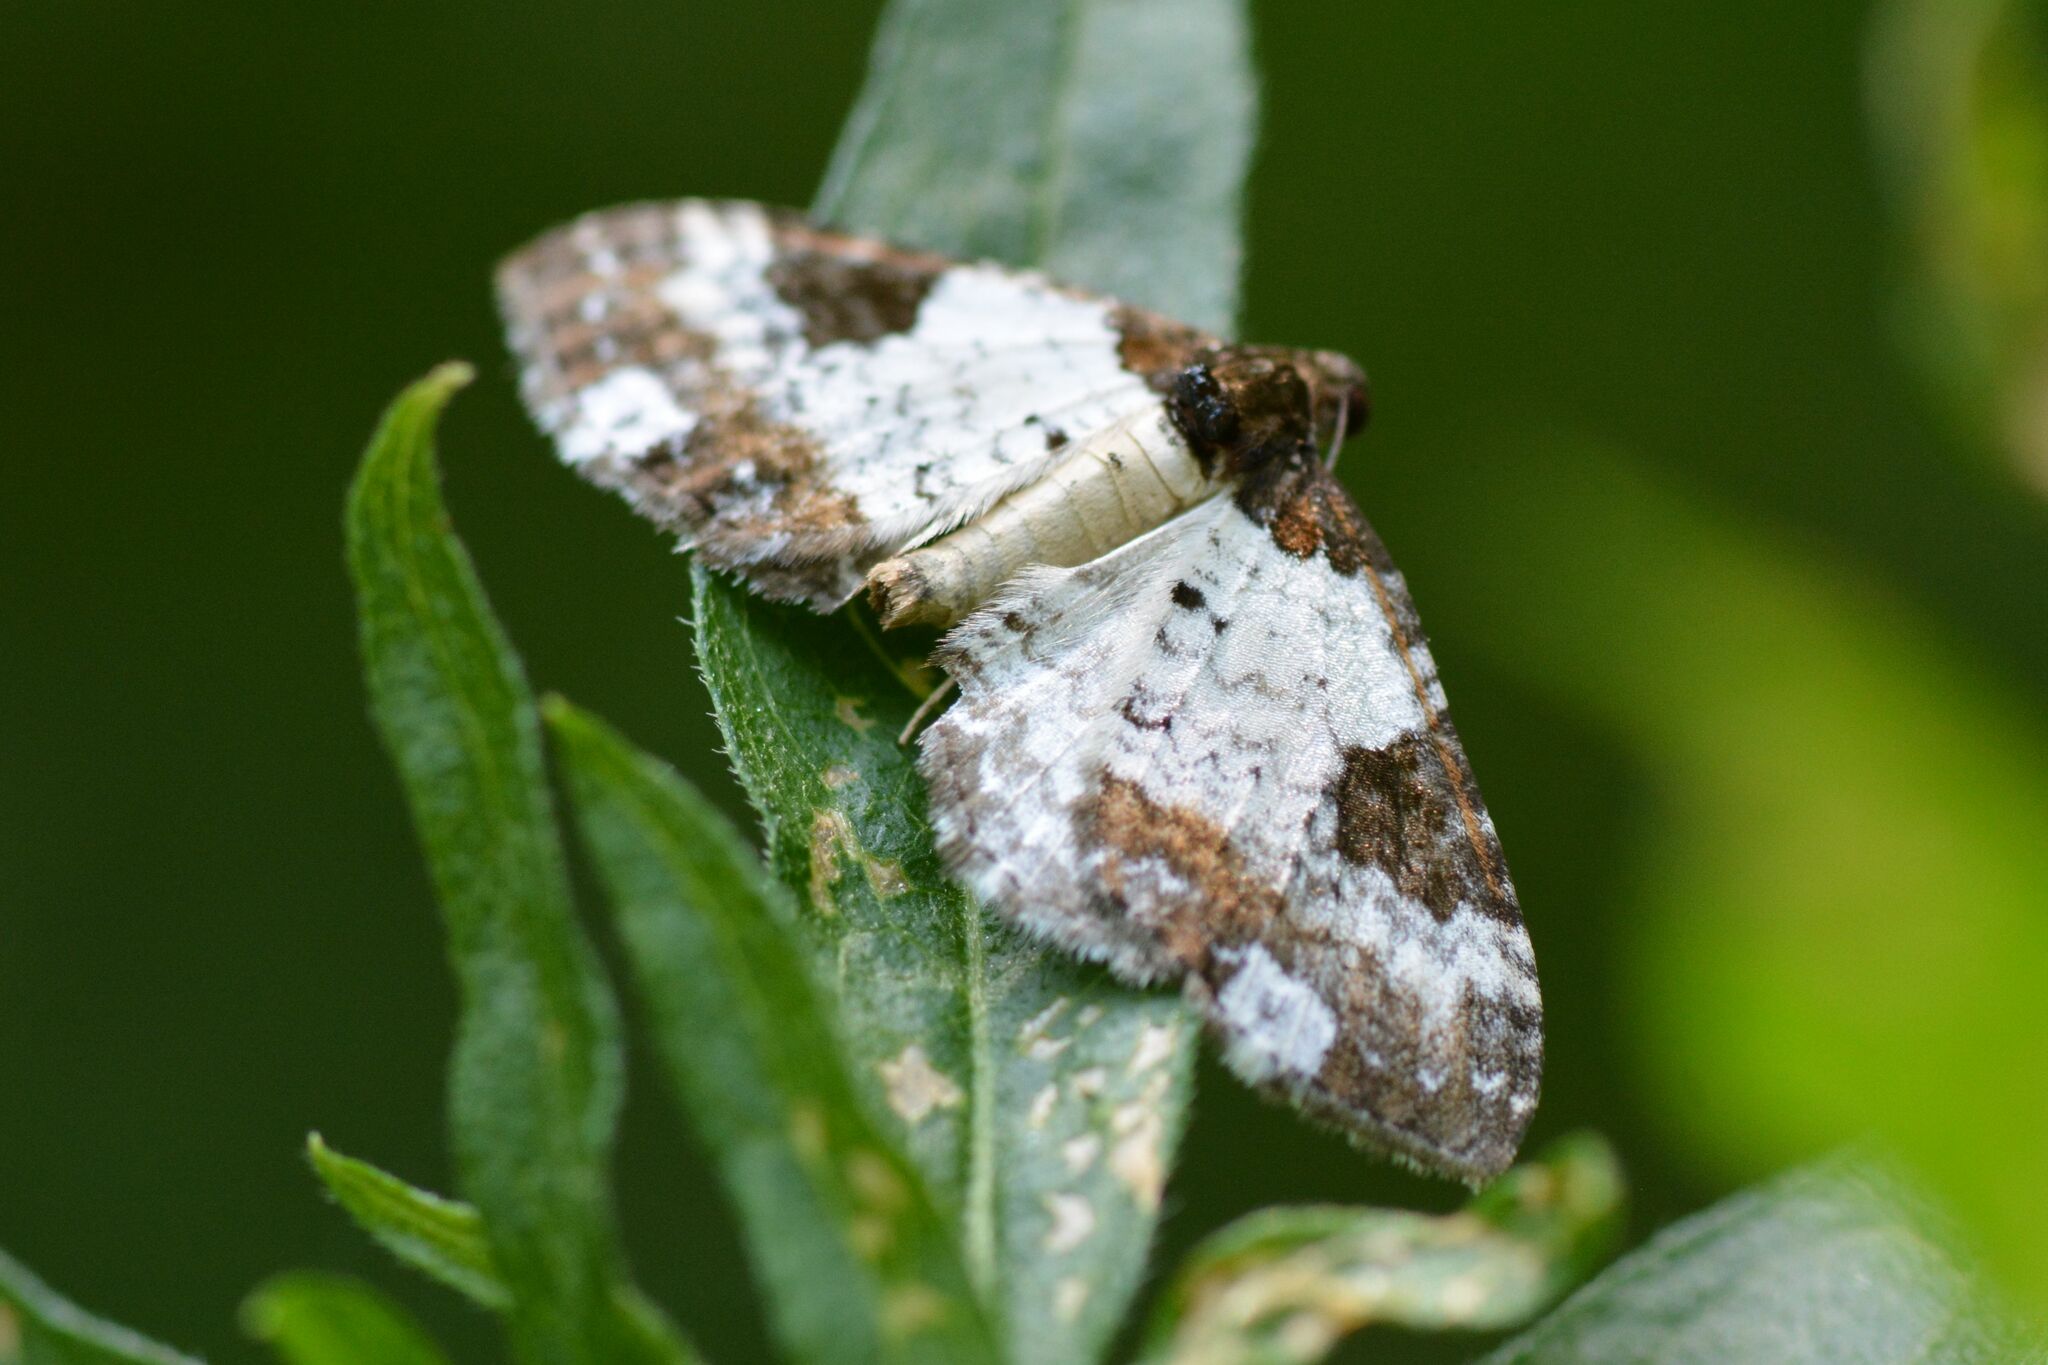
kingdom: Animalia
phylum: Arthropoda
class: Insecta
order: Lepidoptera
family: Geometridae
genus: Melanthia
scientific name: Melanthia procellata
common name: Pretty chalk carpet
